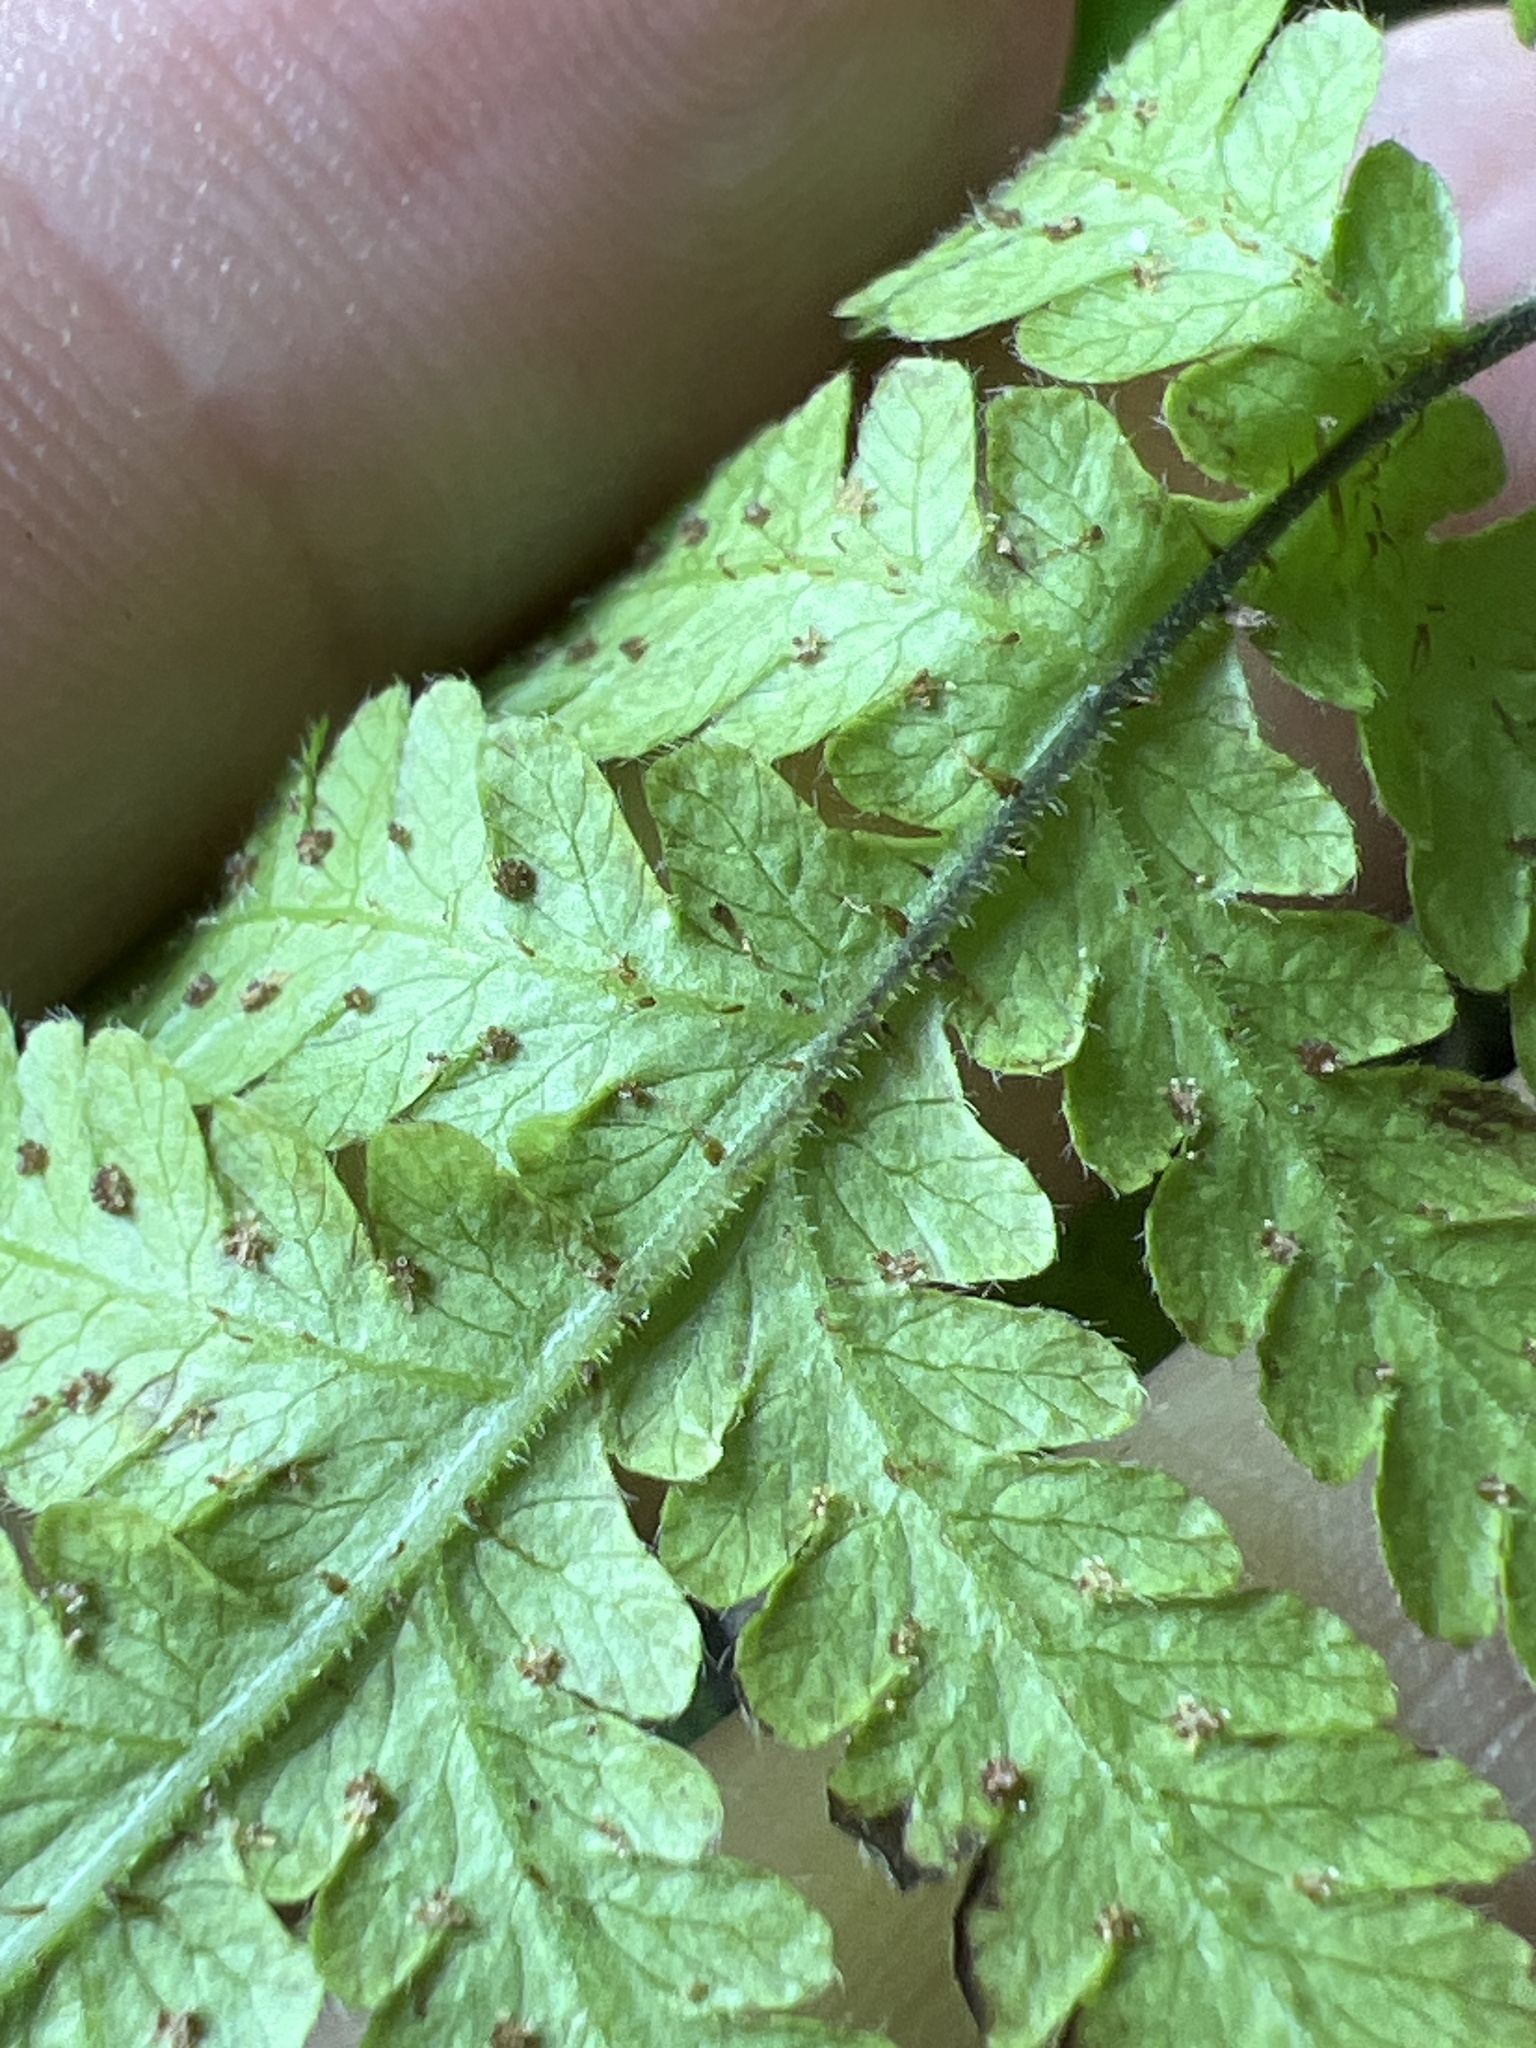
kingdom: Plantae
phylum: Tracheophyta
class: Polypodiopsida
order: Polypodiales
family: Thelypteridaceae
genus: Phegopteris
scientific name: Phegopteris connectilis
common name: Beech fern
